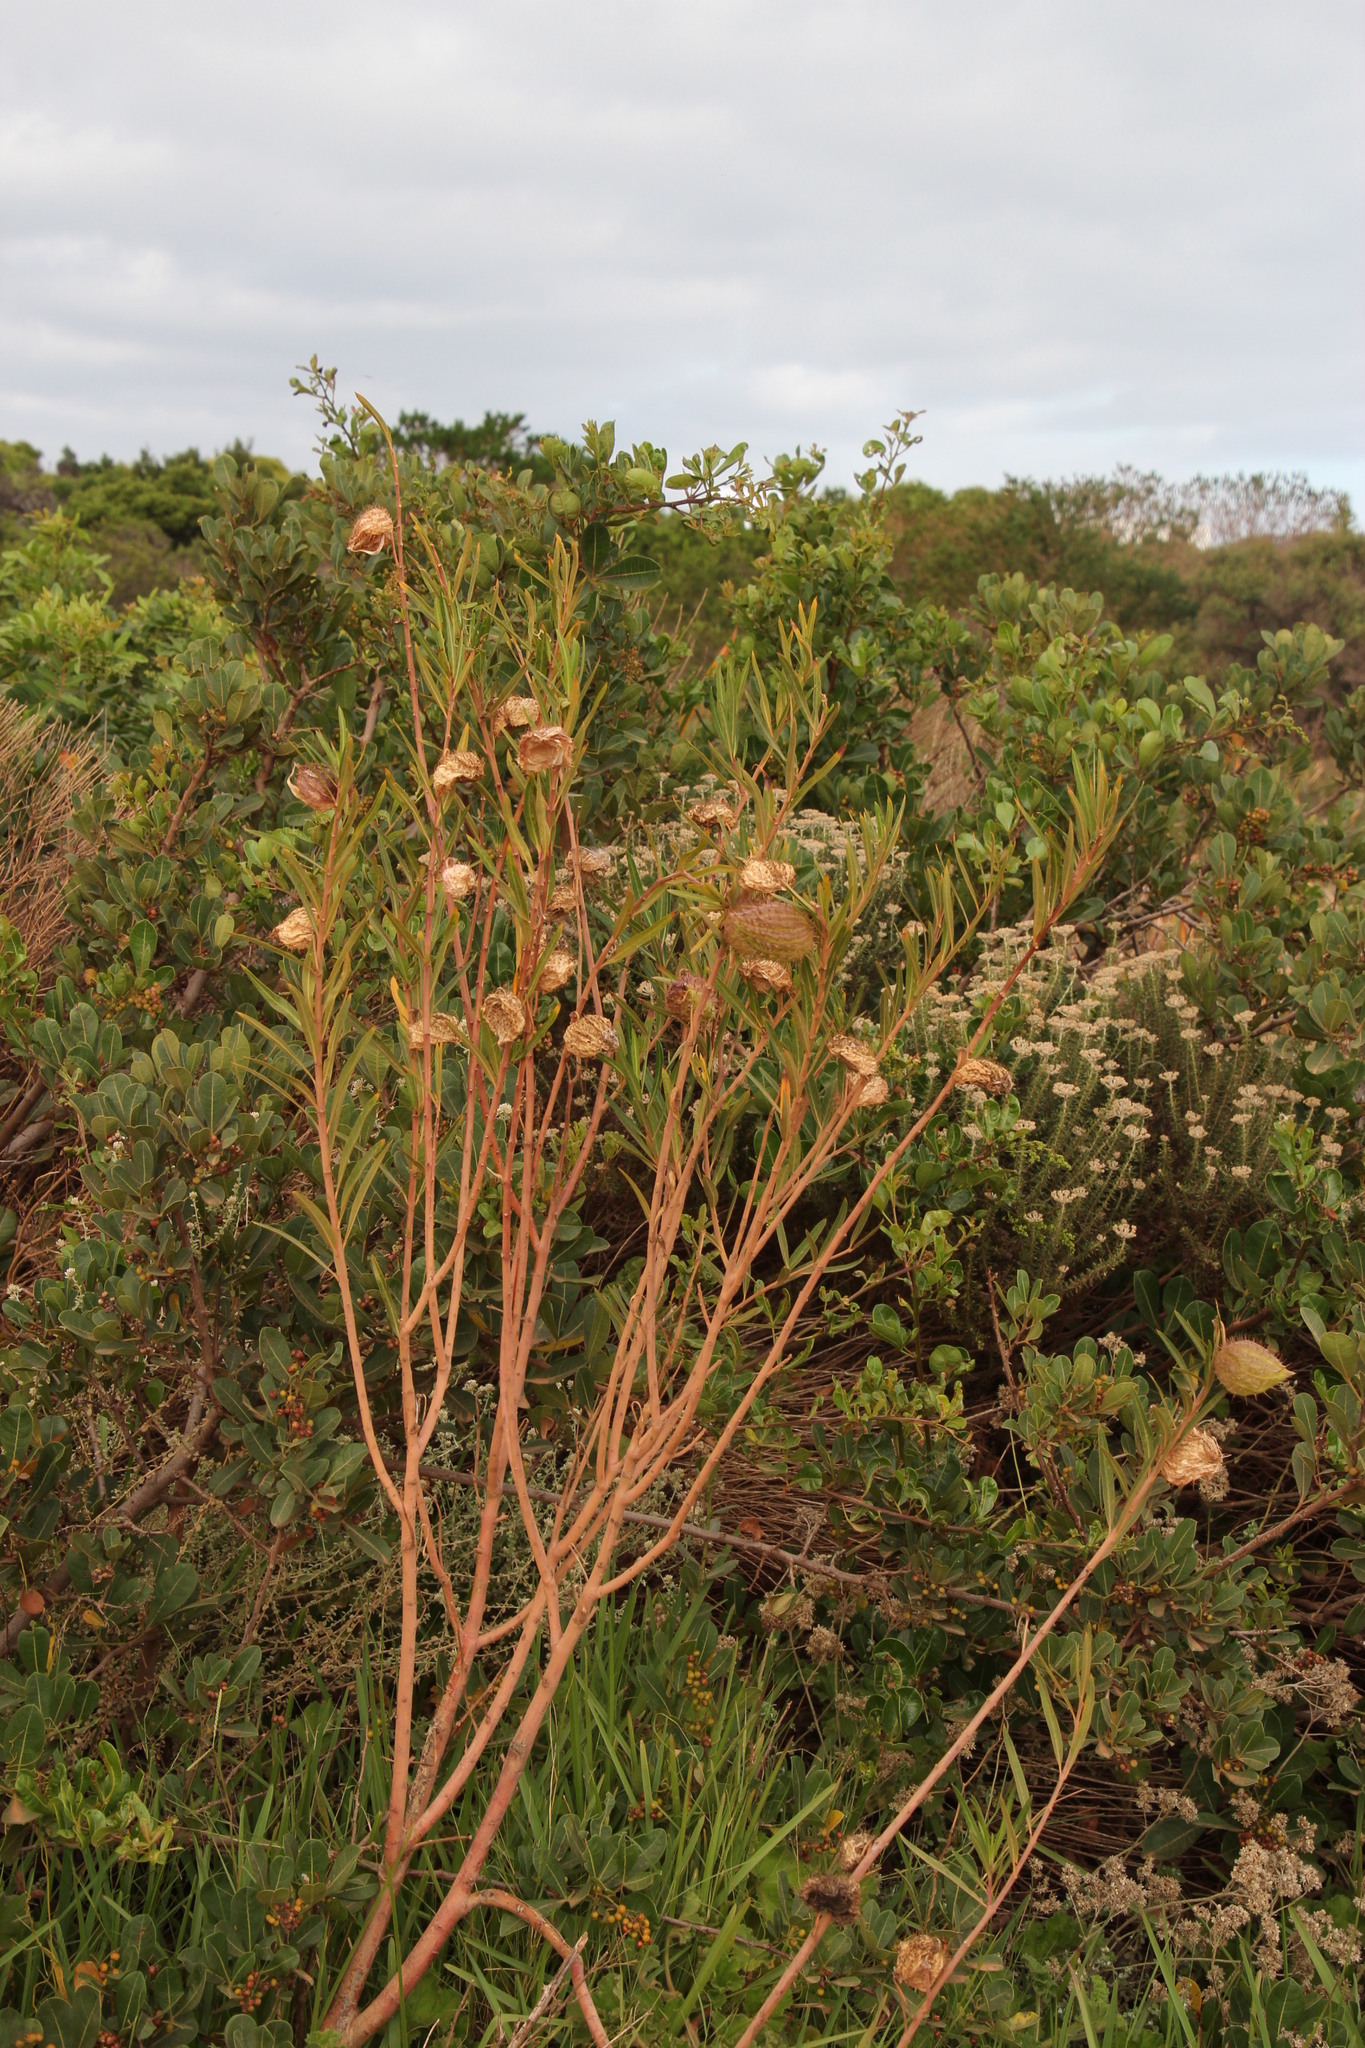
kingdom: Plantae
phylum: Tracheophyta
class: Magnoliopsida
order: Gentianales
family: Apocynaceae
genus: Gomphocarpus
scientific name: Gomphocarpus fruticosus
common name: Milkweed
